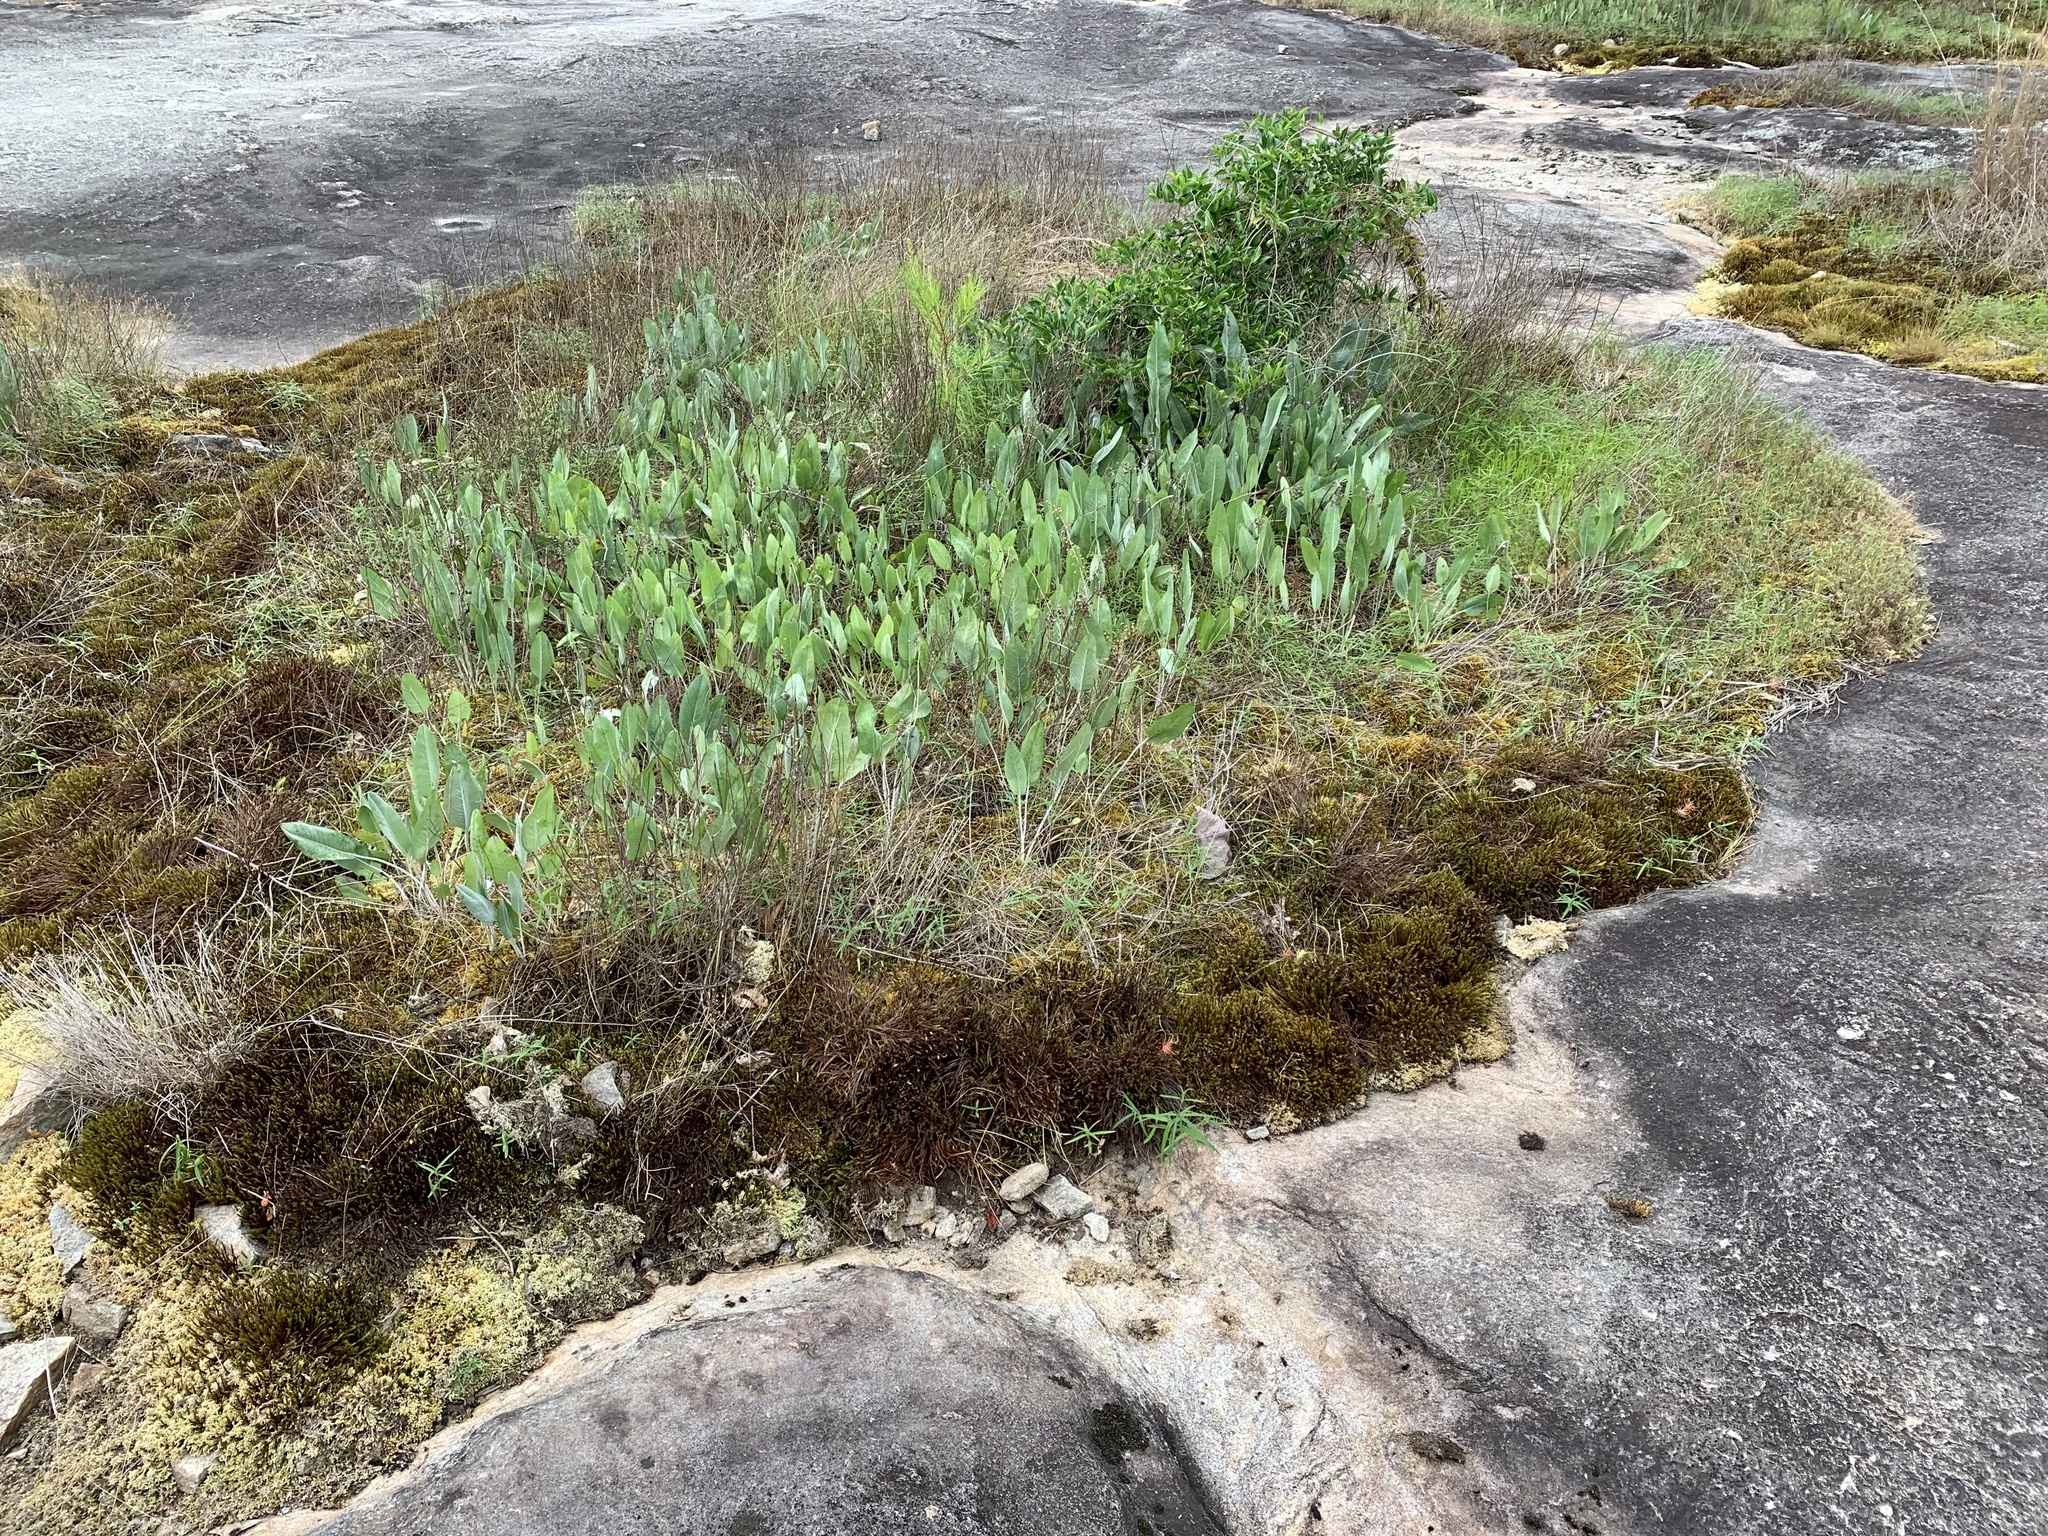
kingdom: Plantae
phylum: Tracheophyta
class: Magnoliopsida
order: Asterales
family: Asteraceae
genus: Packera
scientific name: Packera dubia
